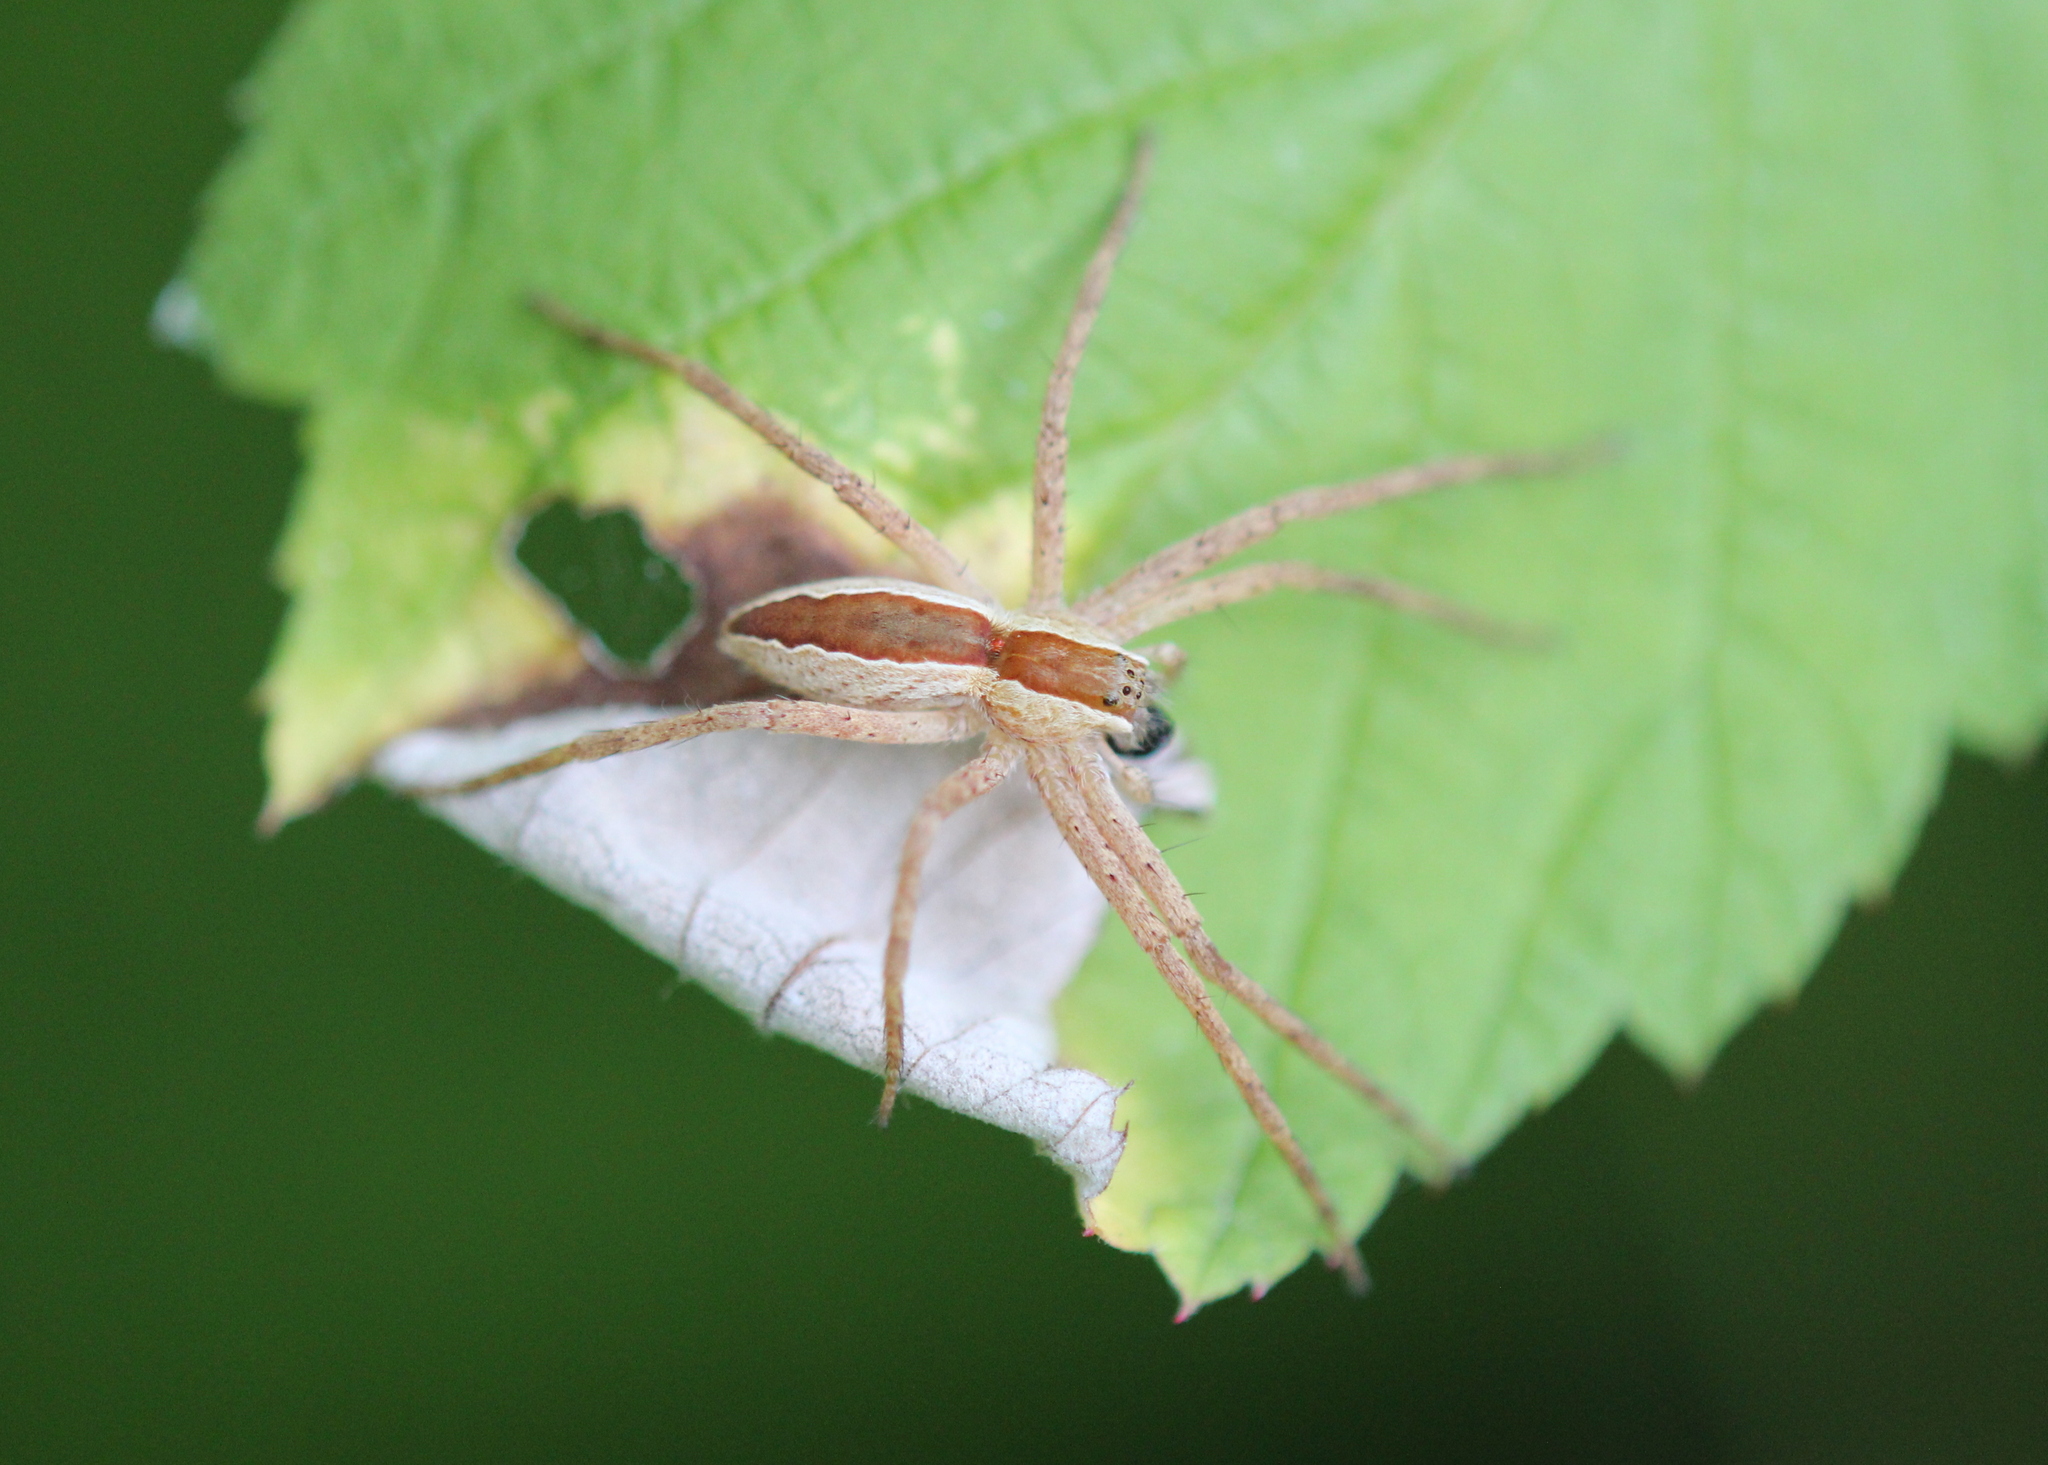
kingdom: Animalia
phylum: Arthropoda
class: Arachnida
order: Araneae
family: Pisauridae
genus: Pisaurina
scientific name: Pisaurina mira
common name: American nursery web spider
